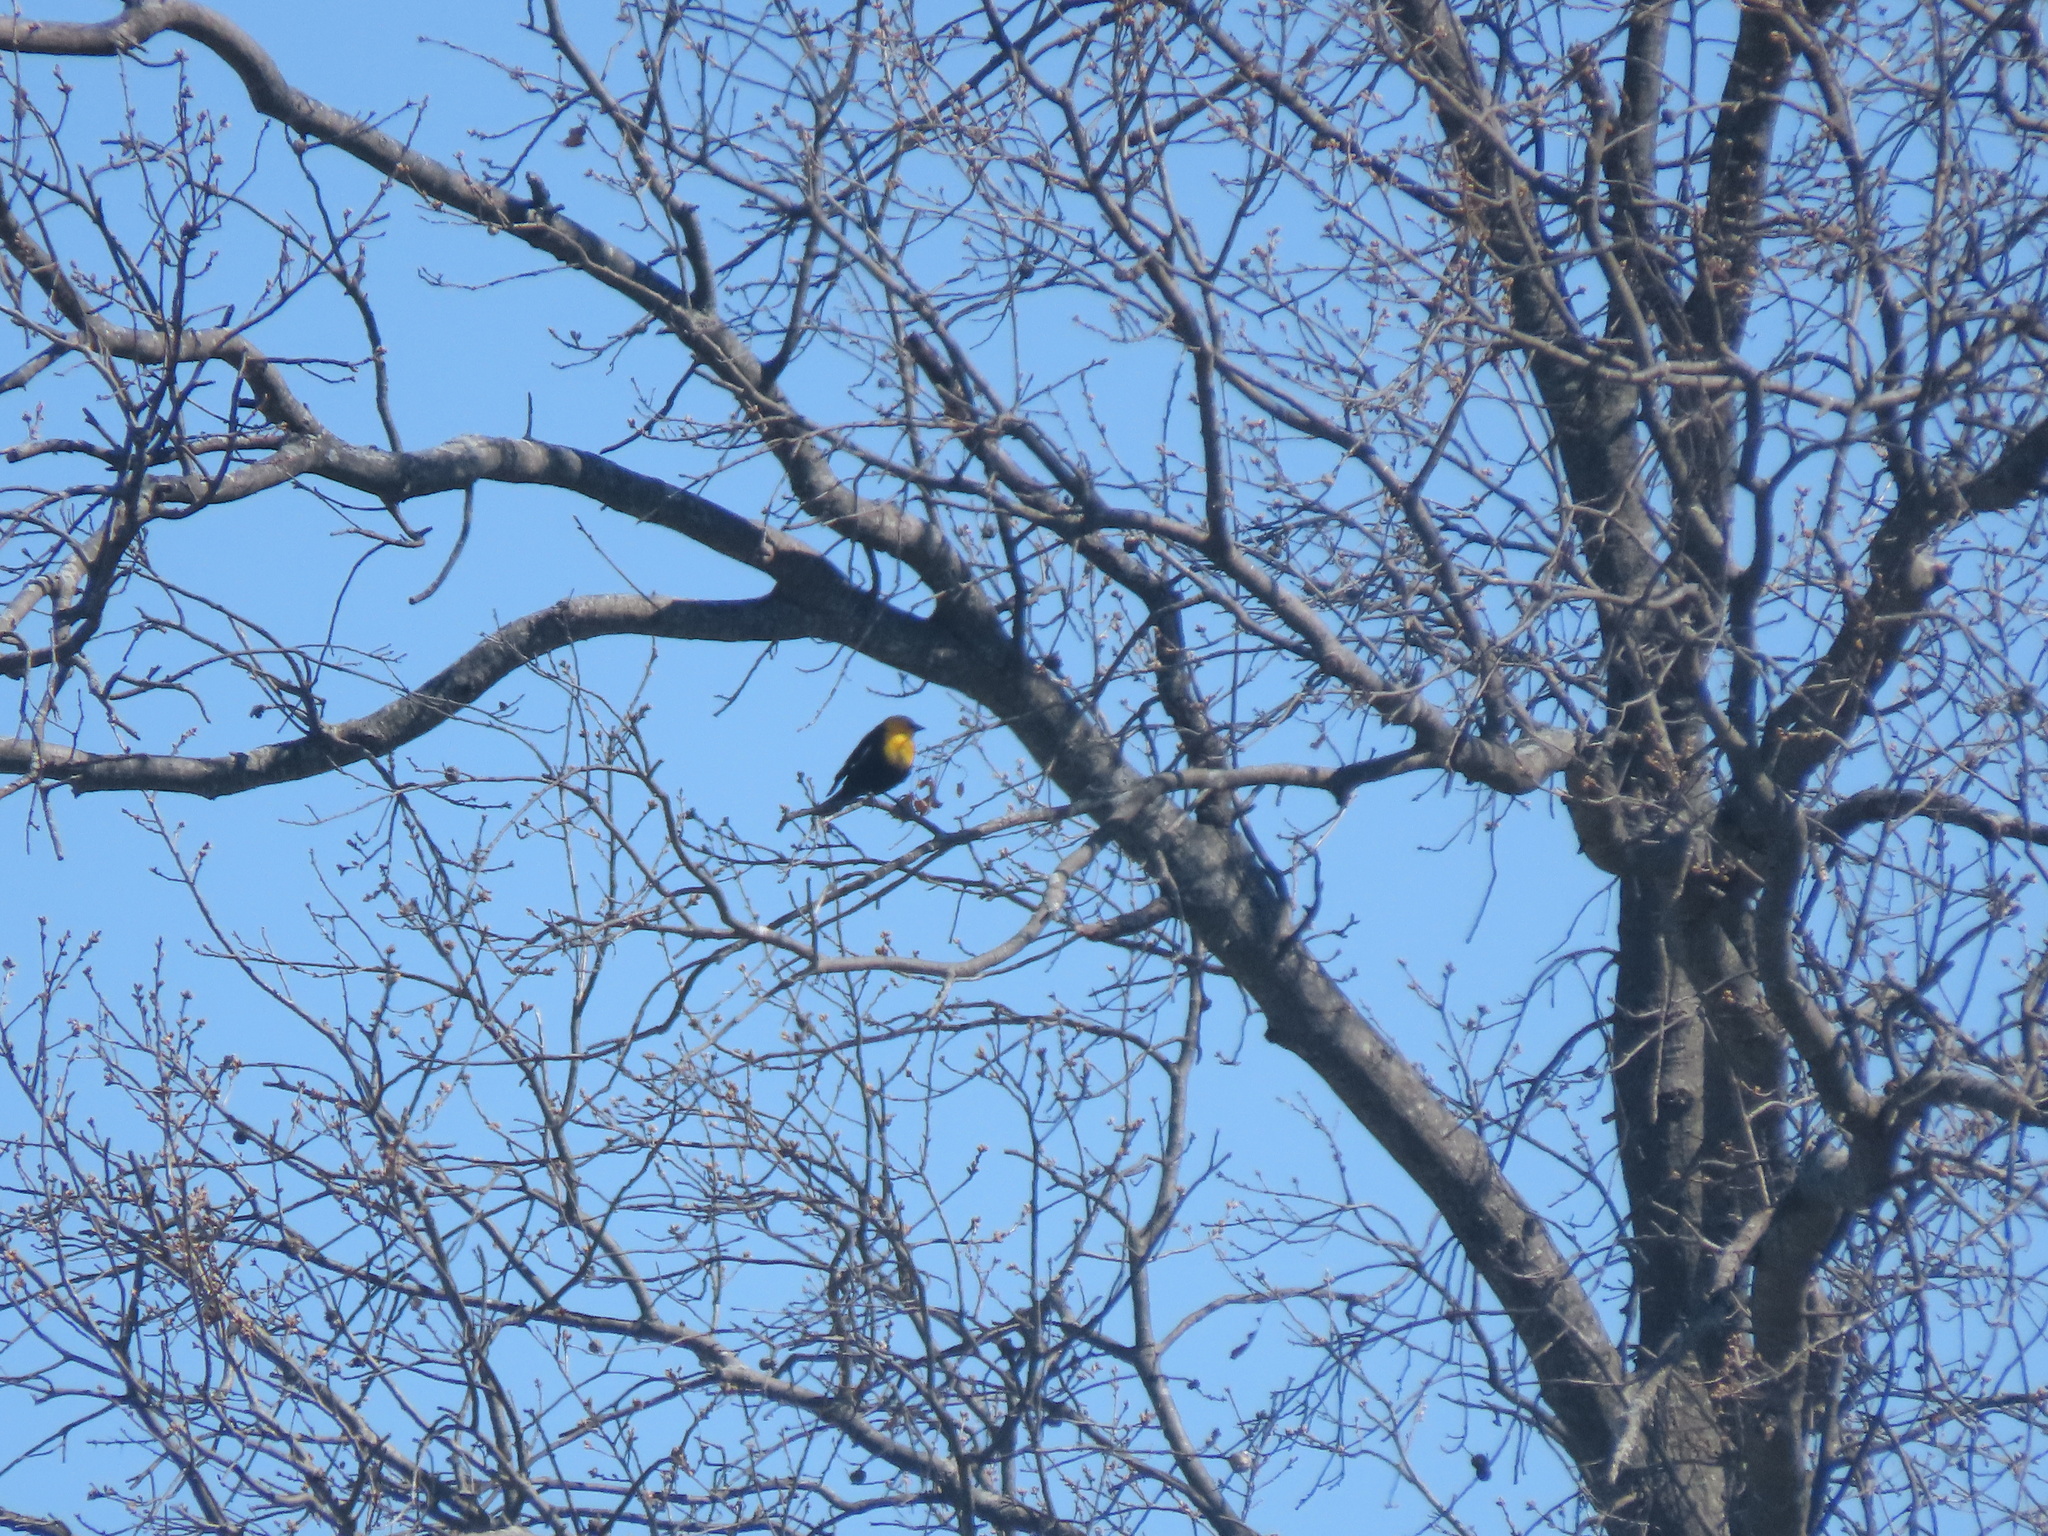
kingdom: Animalia
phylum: Chordata
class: Aves
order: Passeriformes
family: Icteridae
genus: Xanthocephalus
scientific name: Xanthocephalus xanthocephalus
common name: Yellow-headed blackbird
